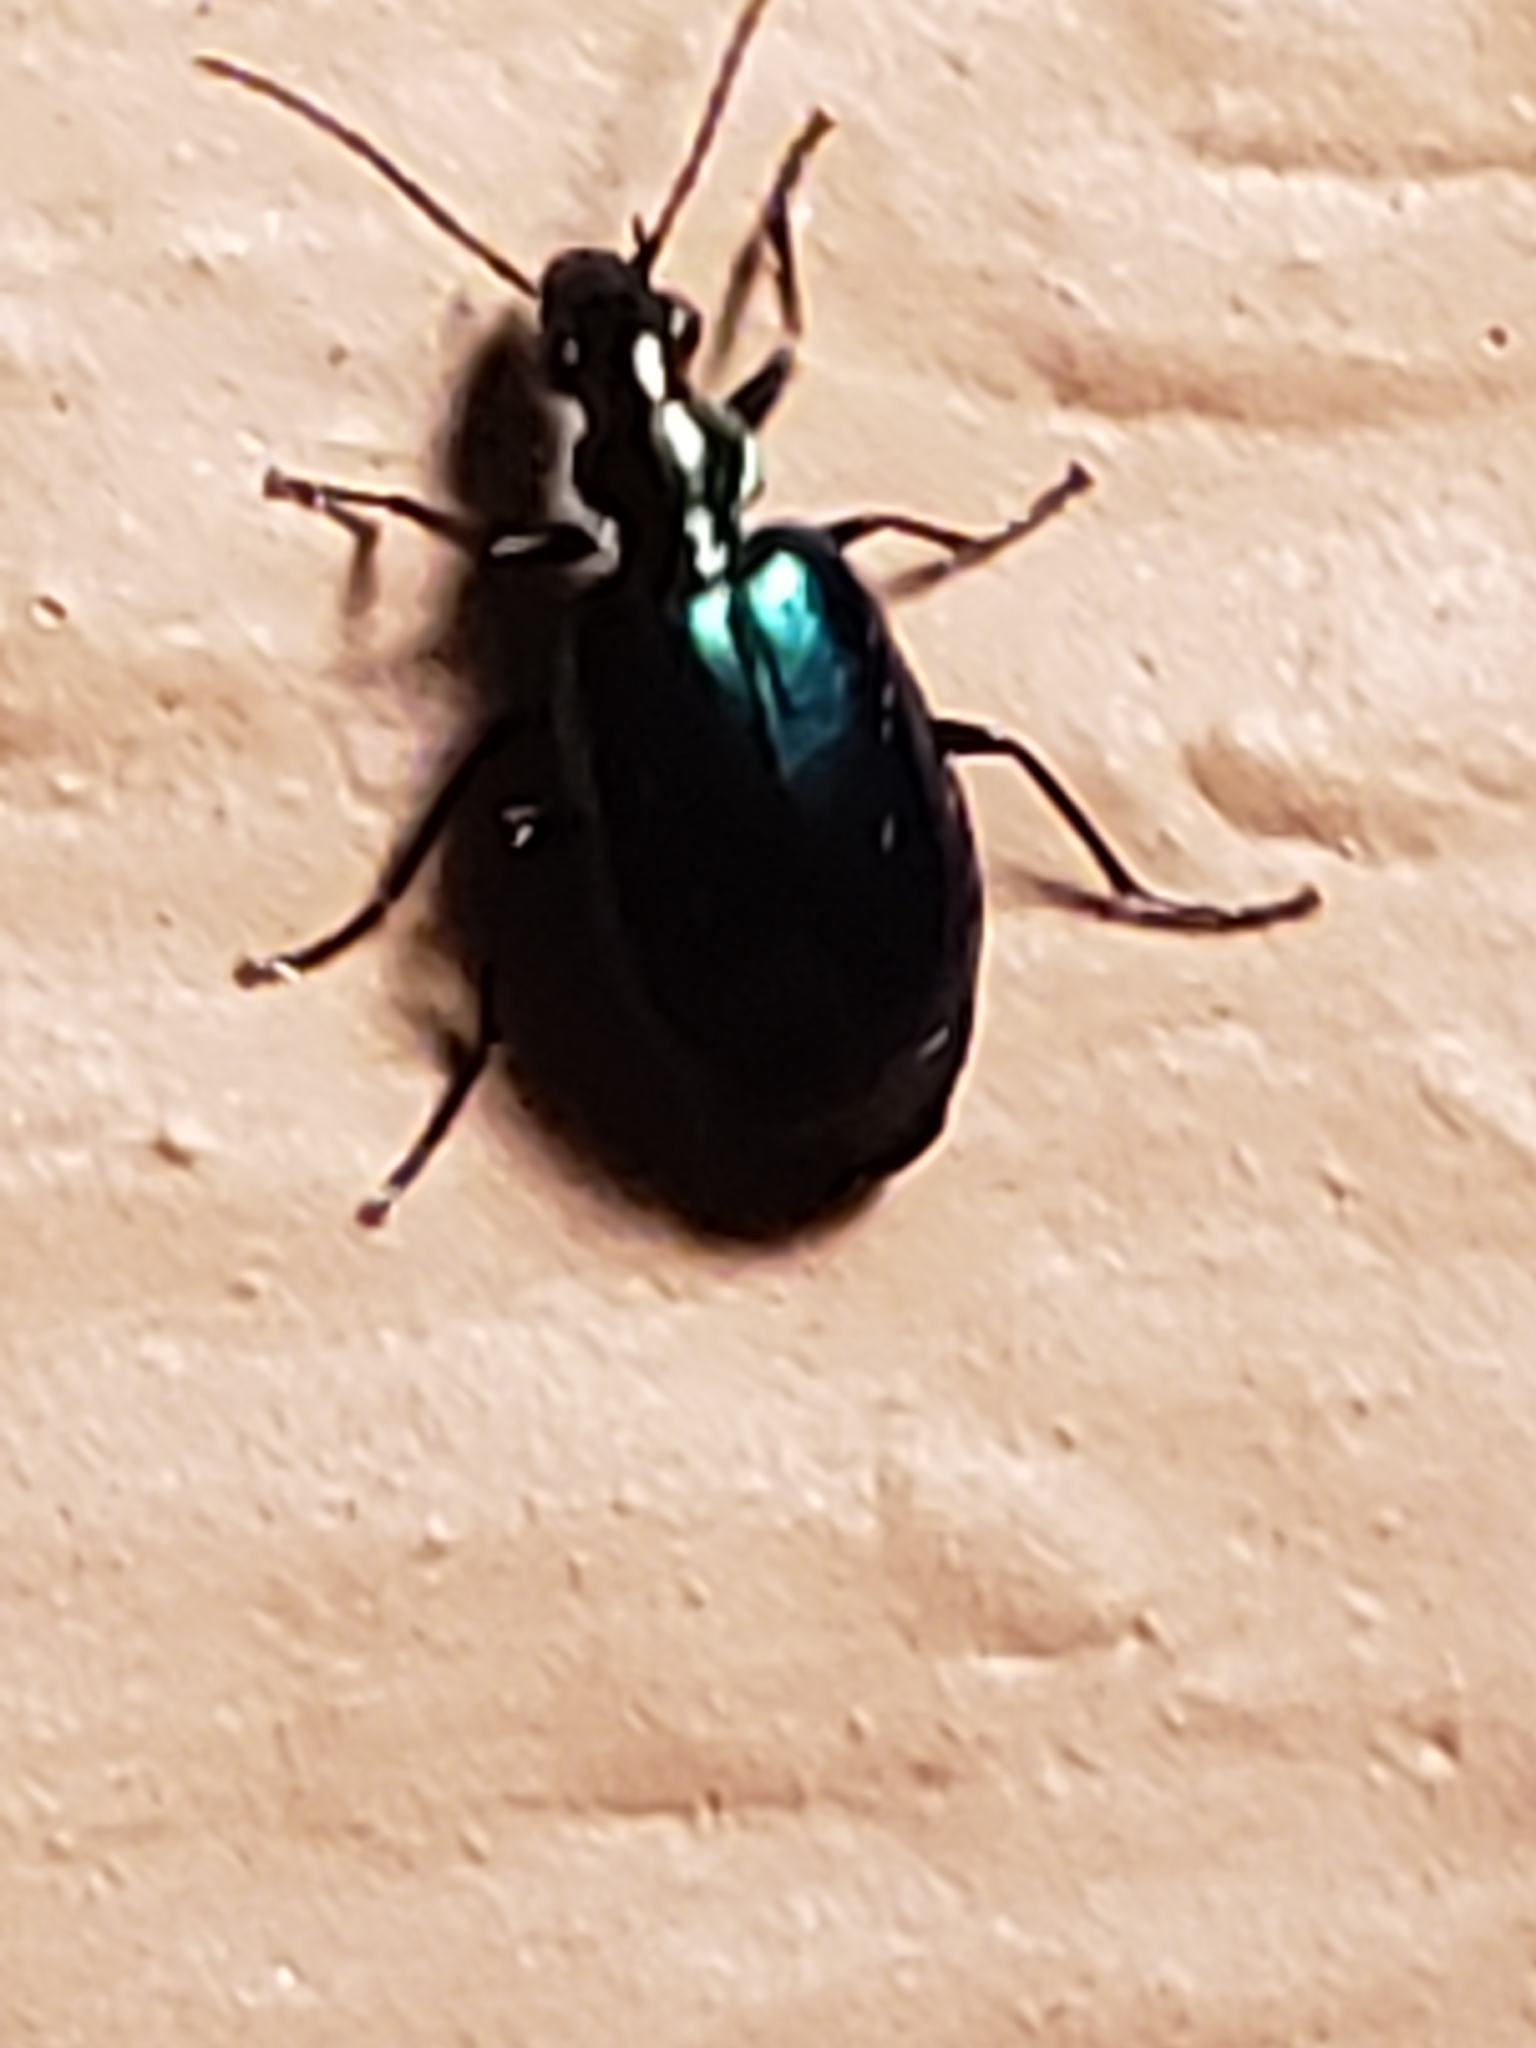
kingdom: Animalia
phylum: Arthropoda
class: Insecta
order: Coleoptera
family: Carabidae
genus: Lebia
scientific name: Lebia viridis
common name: Flower lebia beetle
